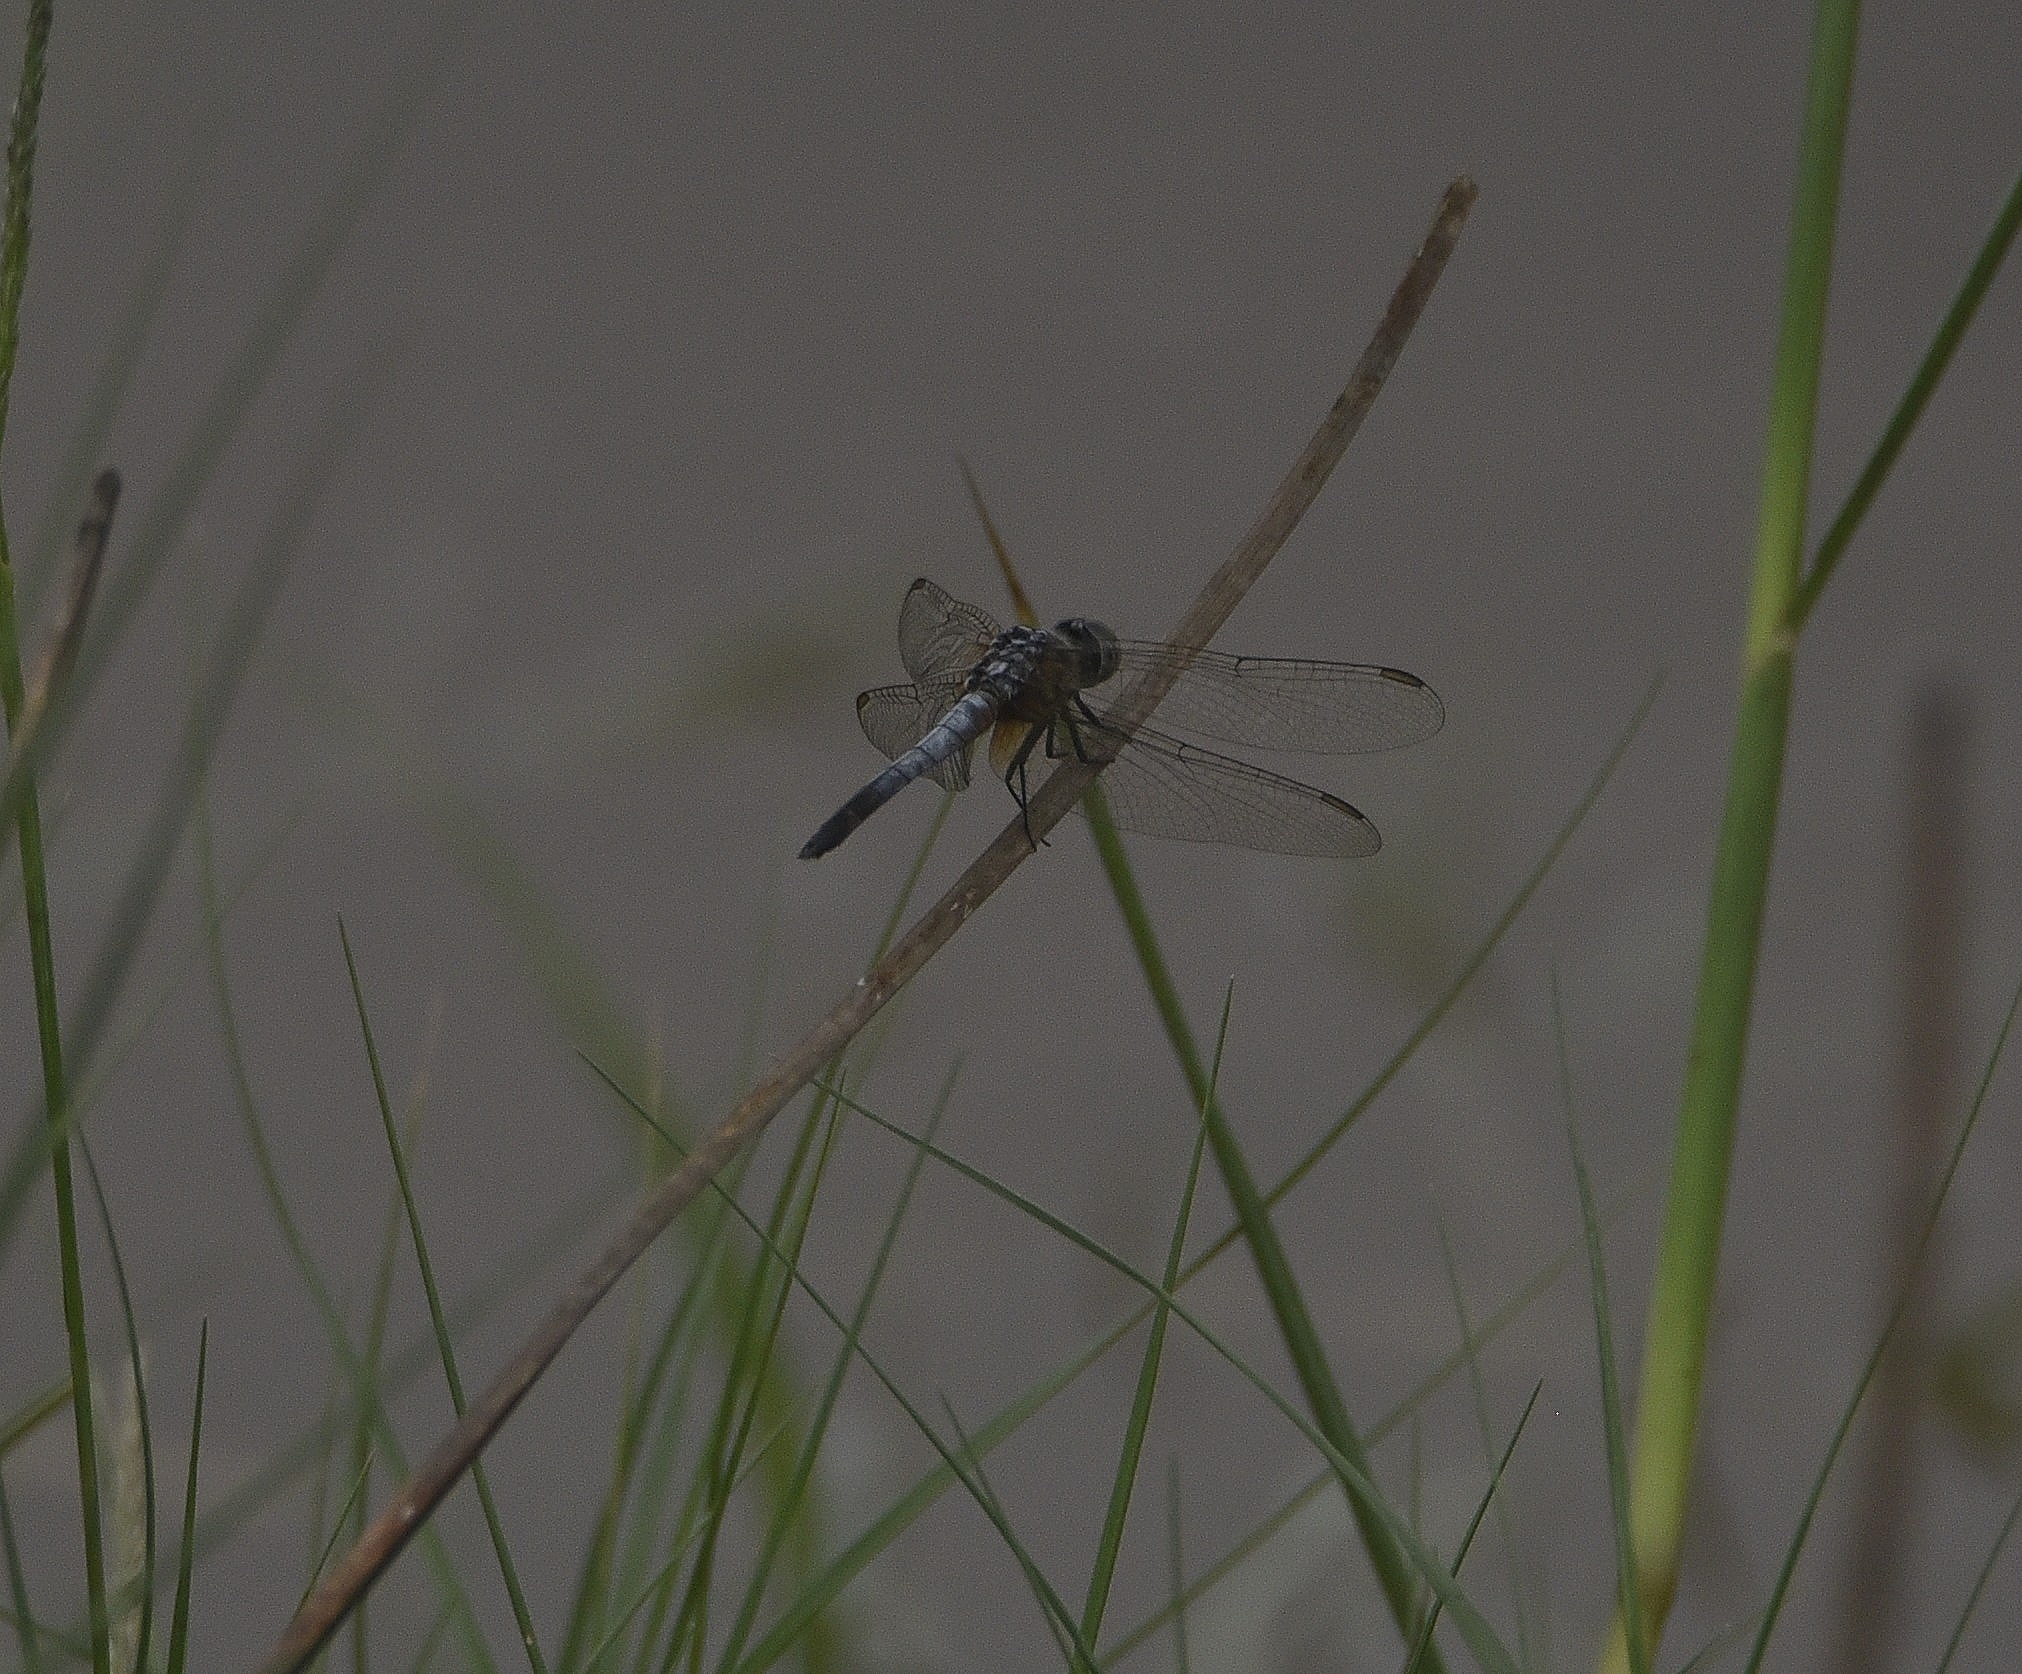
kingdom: Animalia
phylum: Arthropoda
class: Insecta
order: Odonata
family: Libellulidae
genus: Brachydiplax
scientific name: Brachydiplax chalybea
